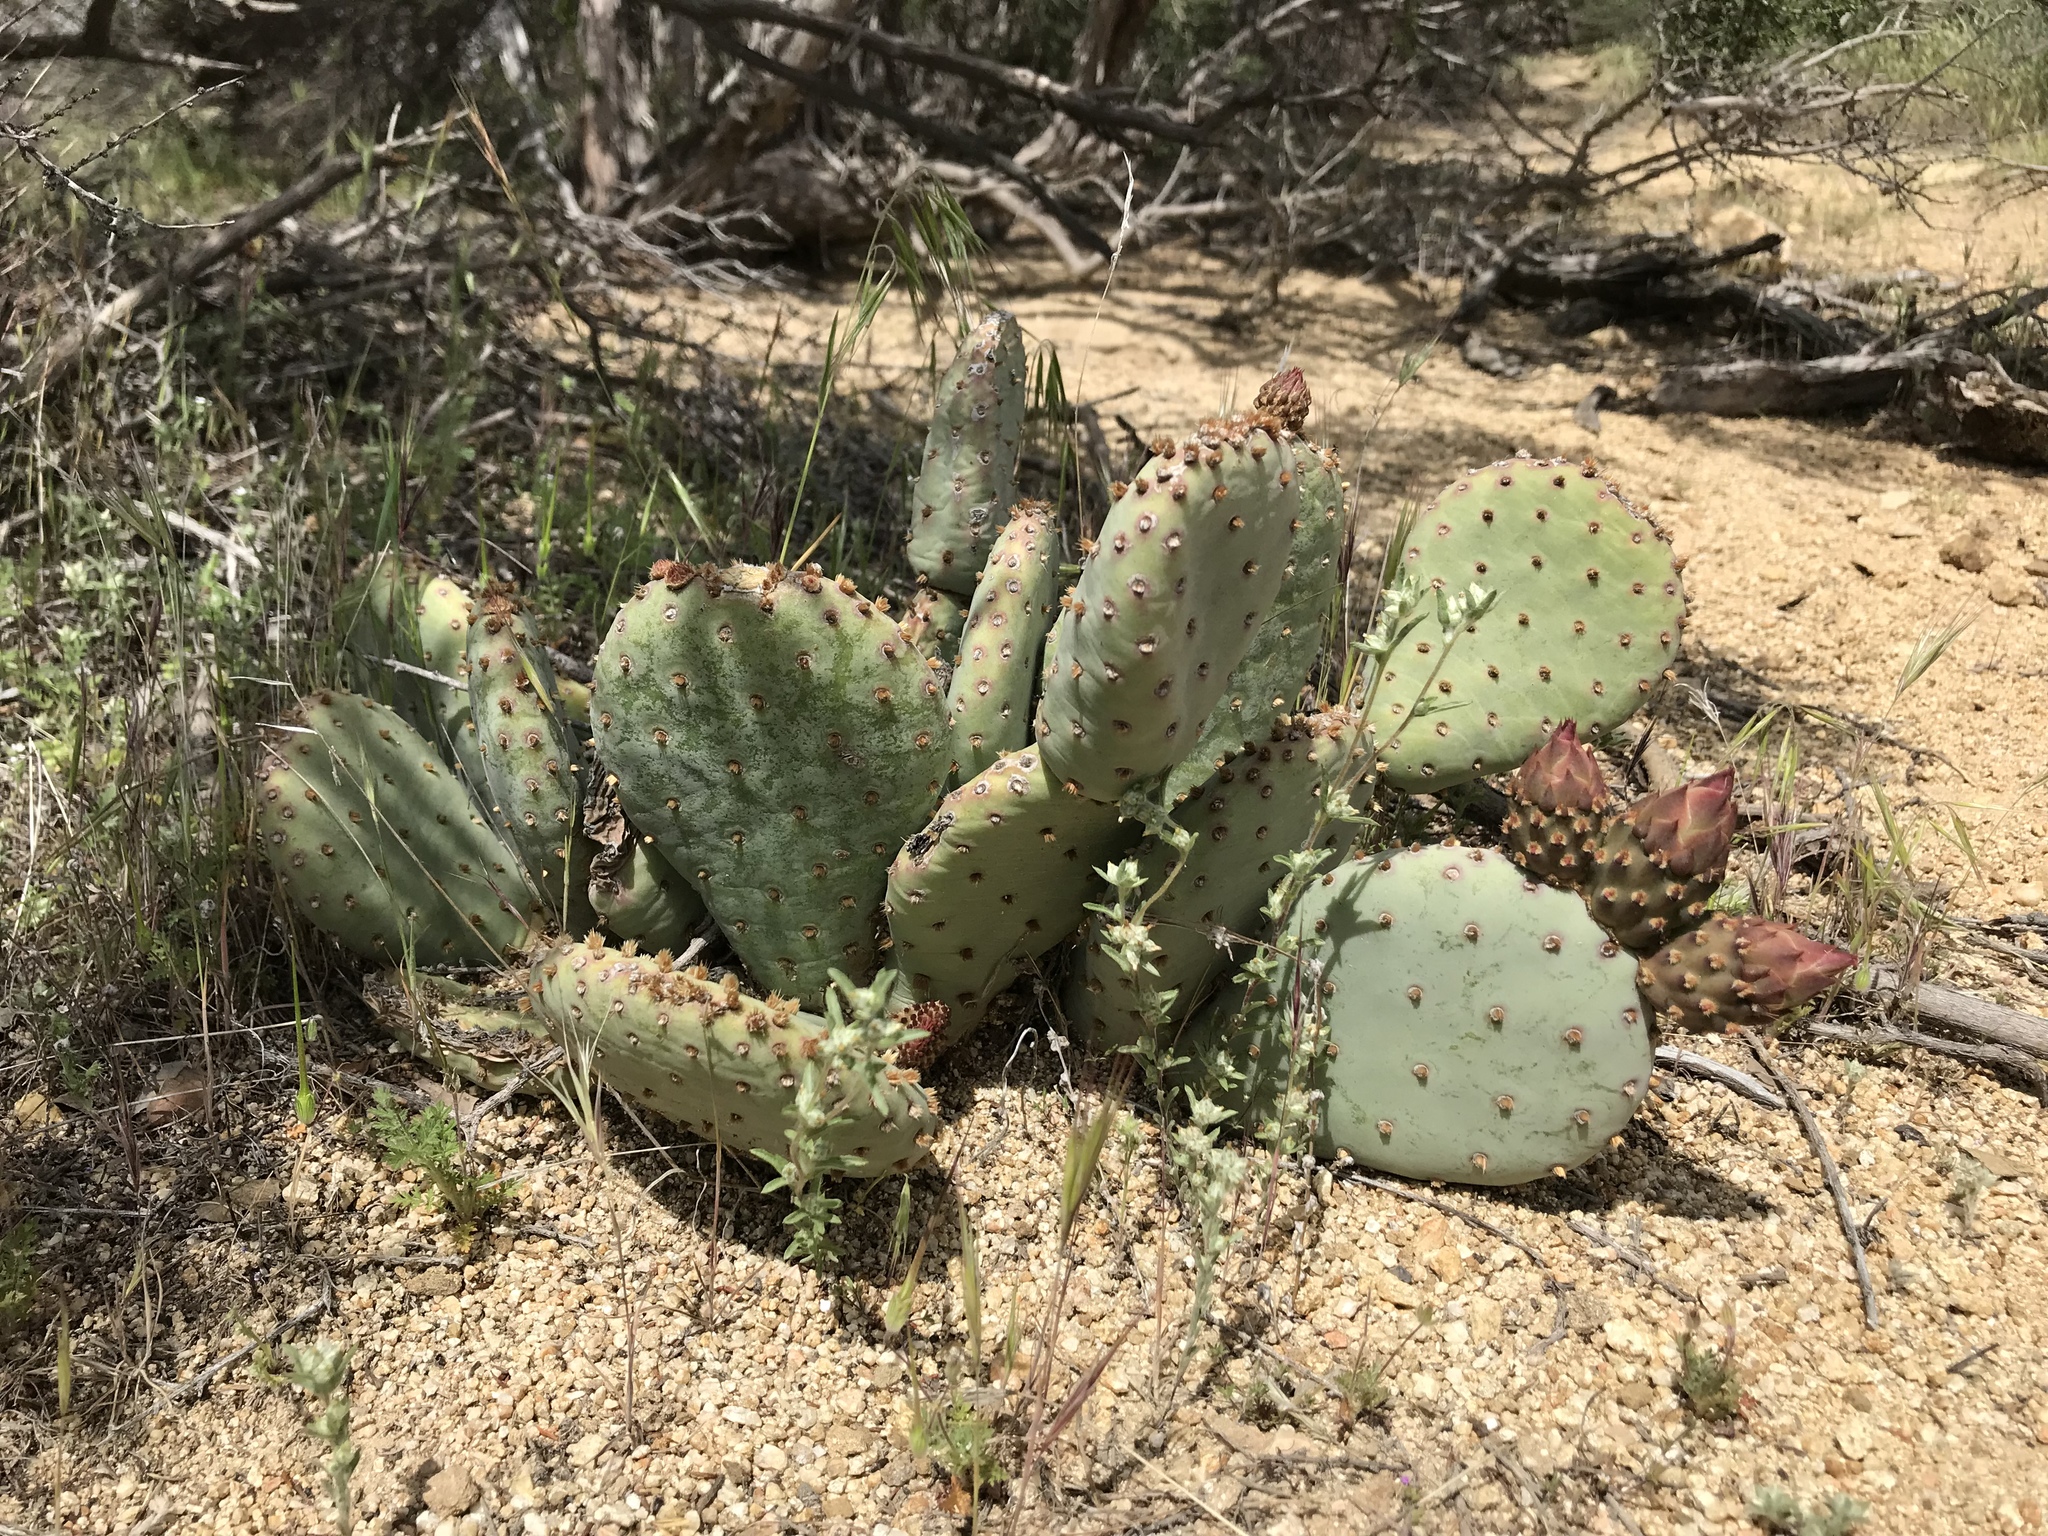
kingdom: Plantae
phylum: Tracheophyta
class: Magnoliopsida
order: Caryophyllales
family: Cactaceae
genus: Opuntia
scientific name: Opuntia basilaris
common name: Beavertail prickly-pear
